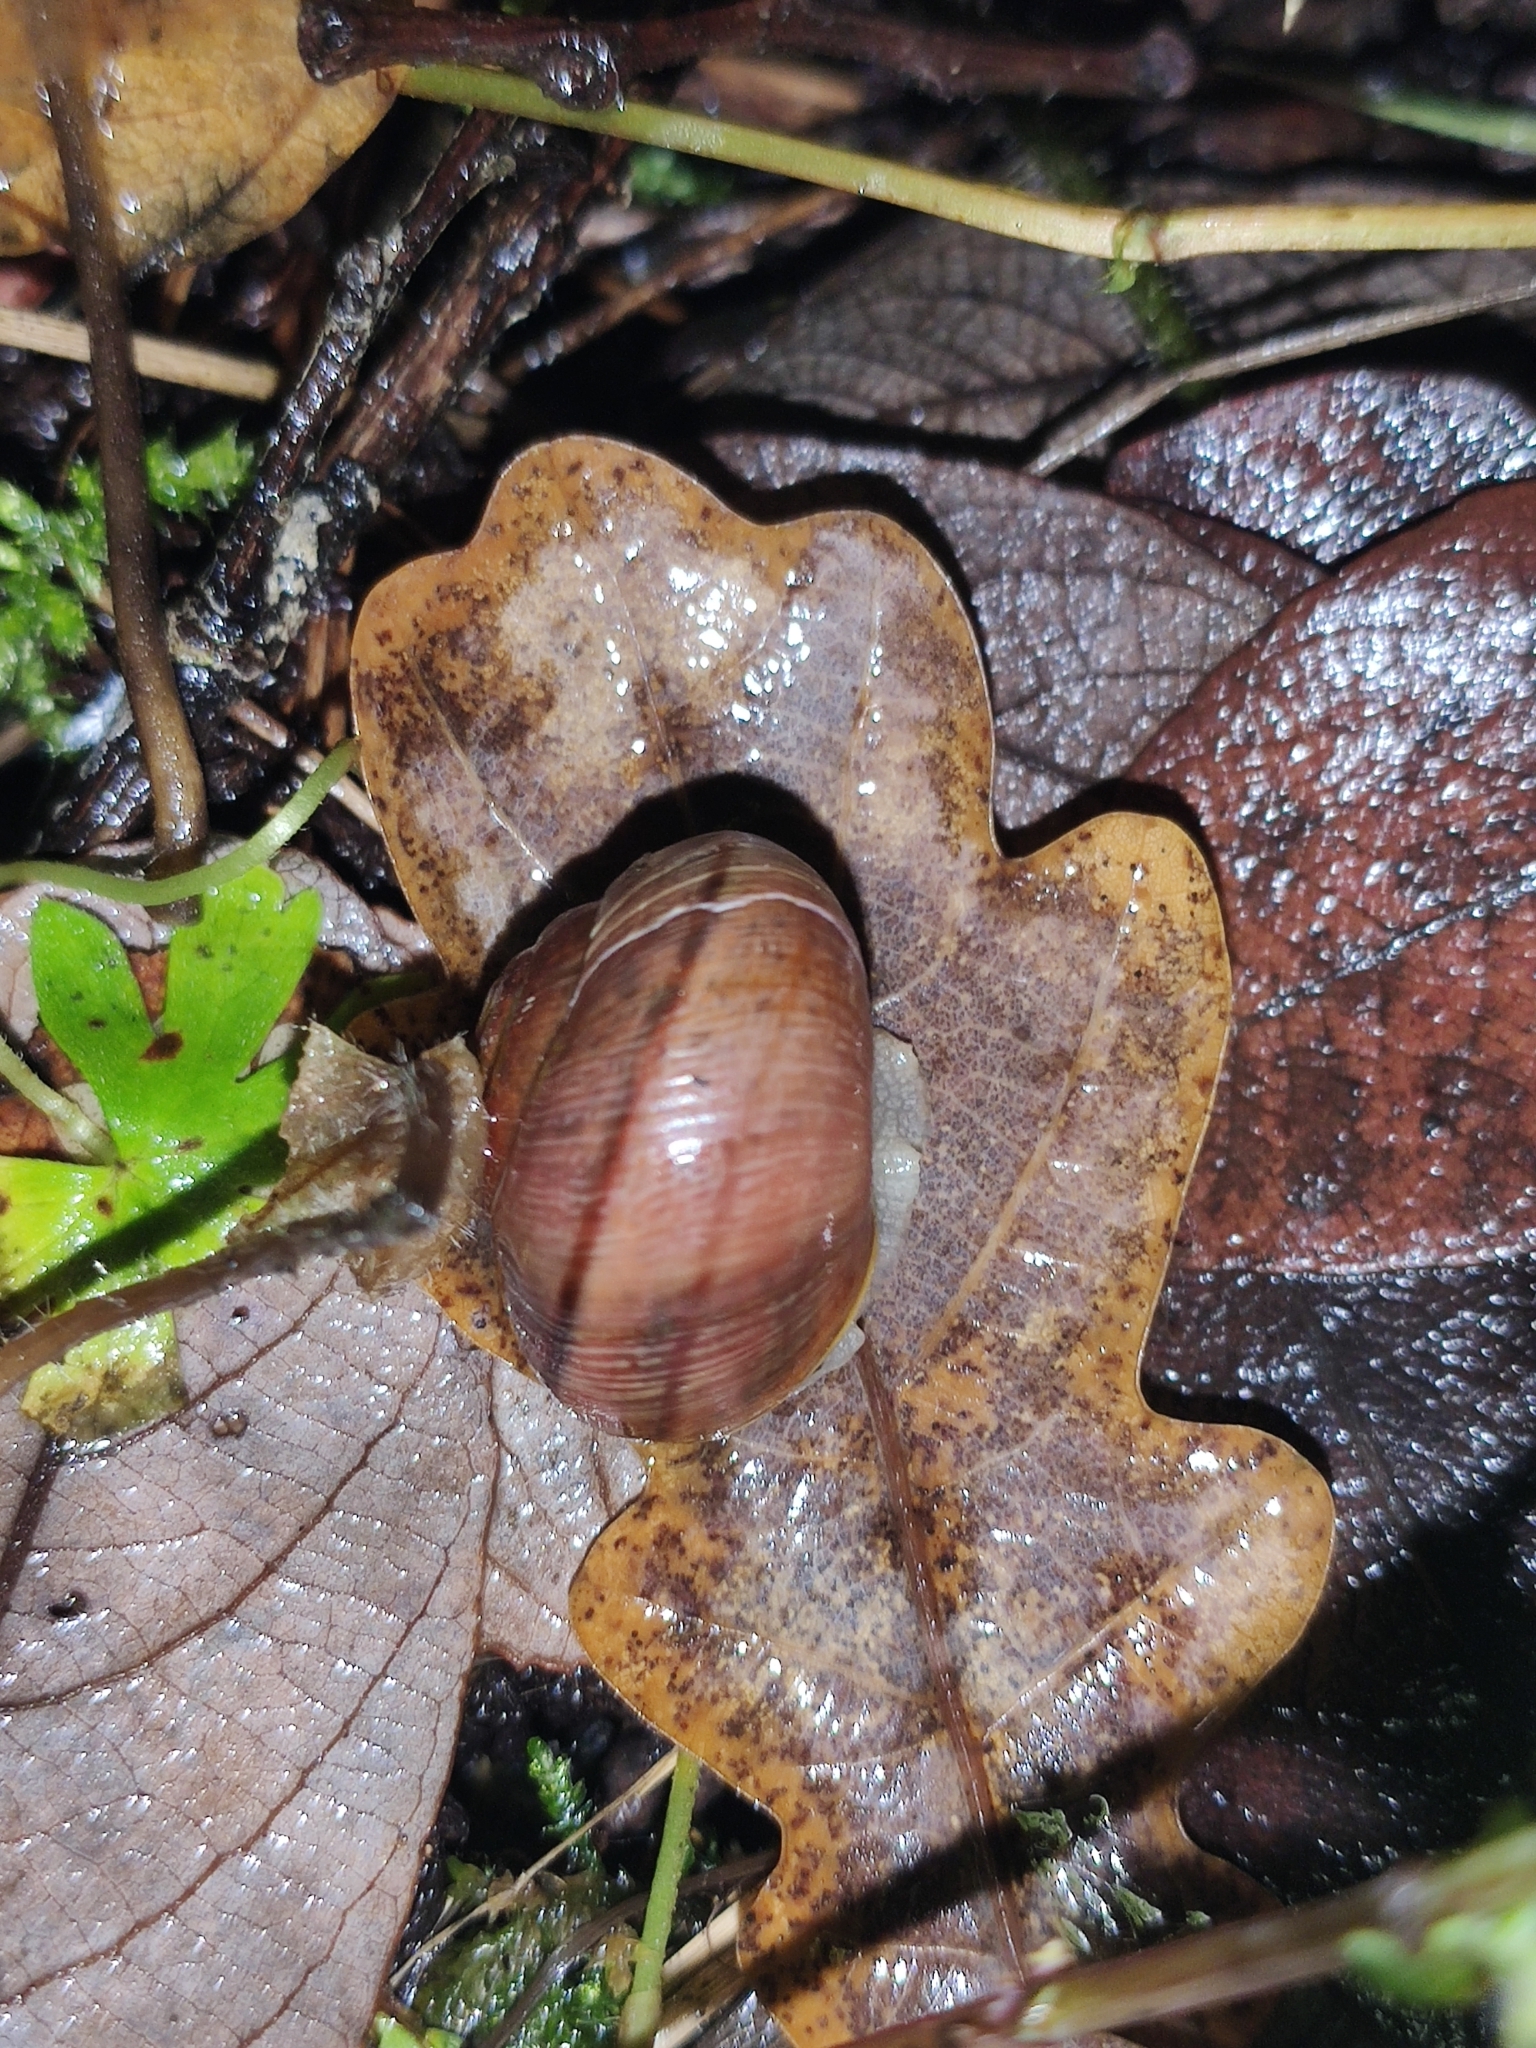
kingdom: Animalia
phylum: Mollusca
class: Gastropoda
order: Stylommatophora
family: Helicidae
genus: Cepaea
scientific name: Cepaea nemoralis
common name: Grovesnail
